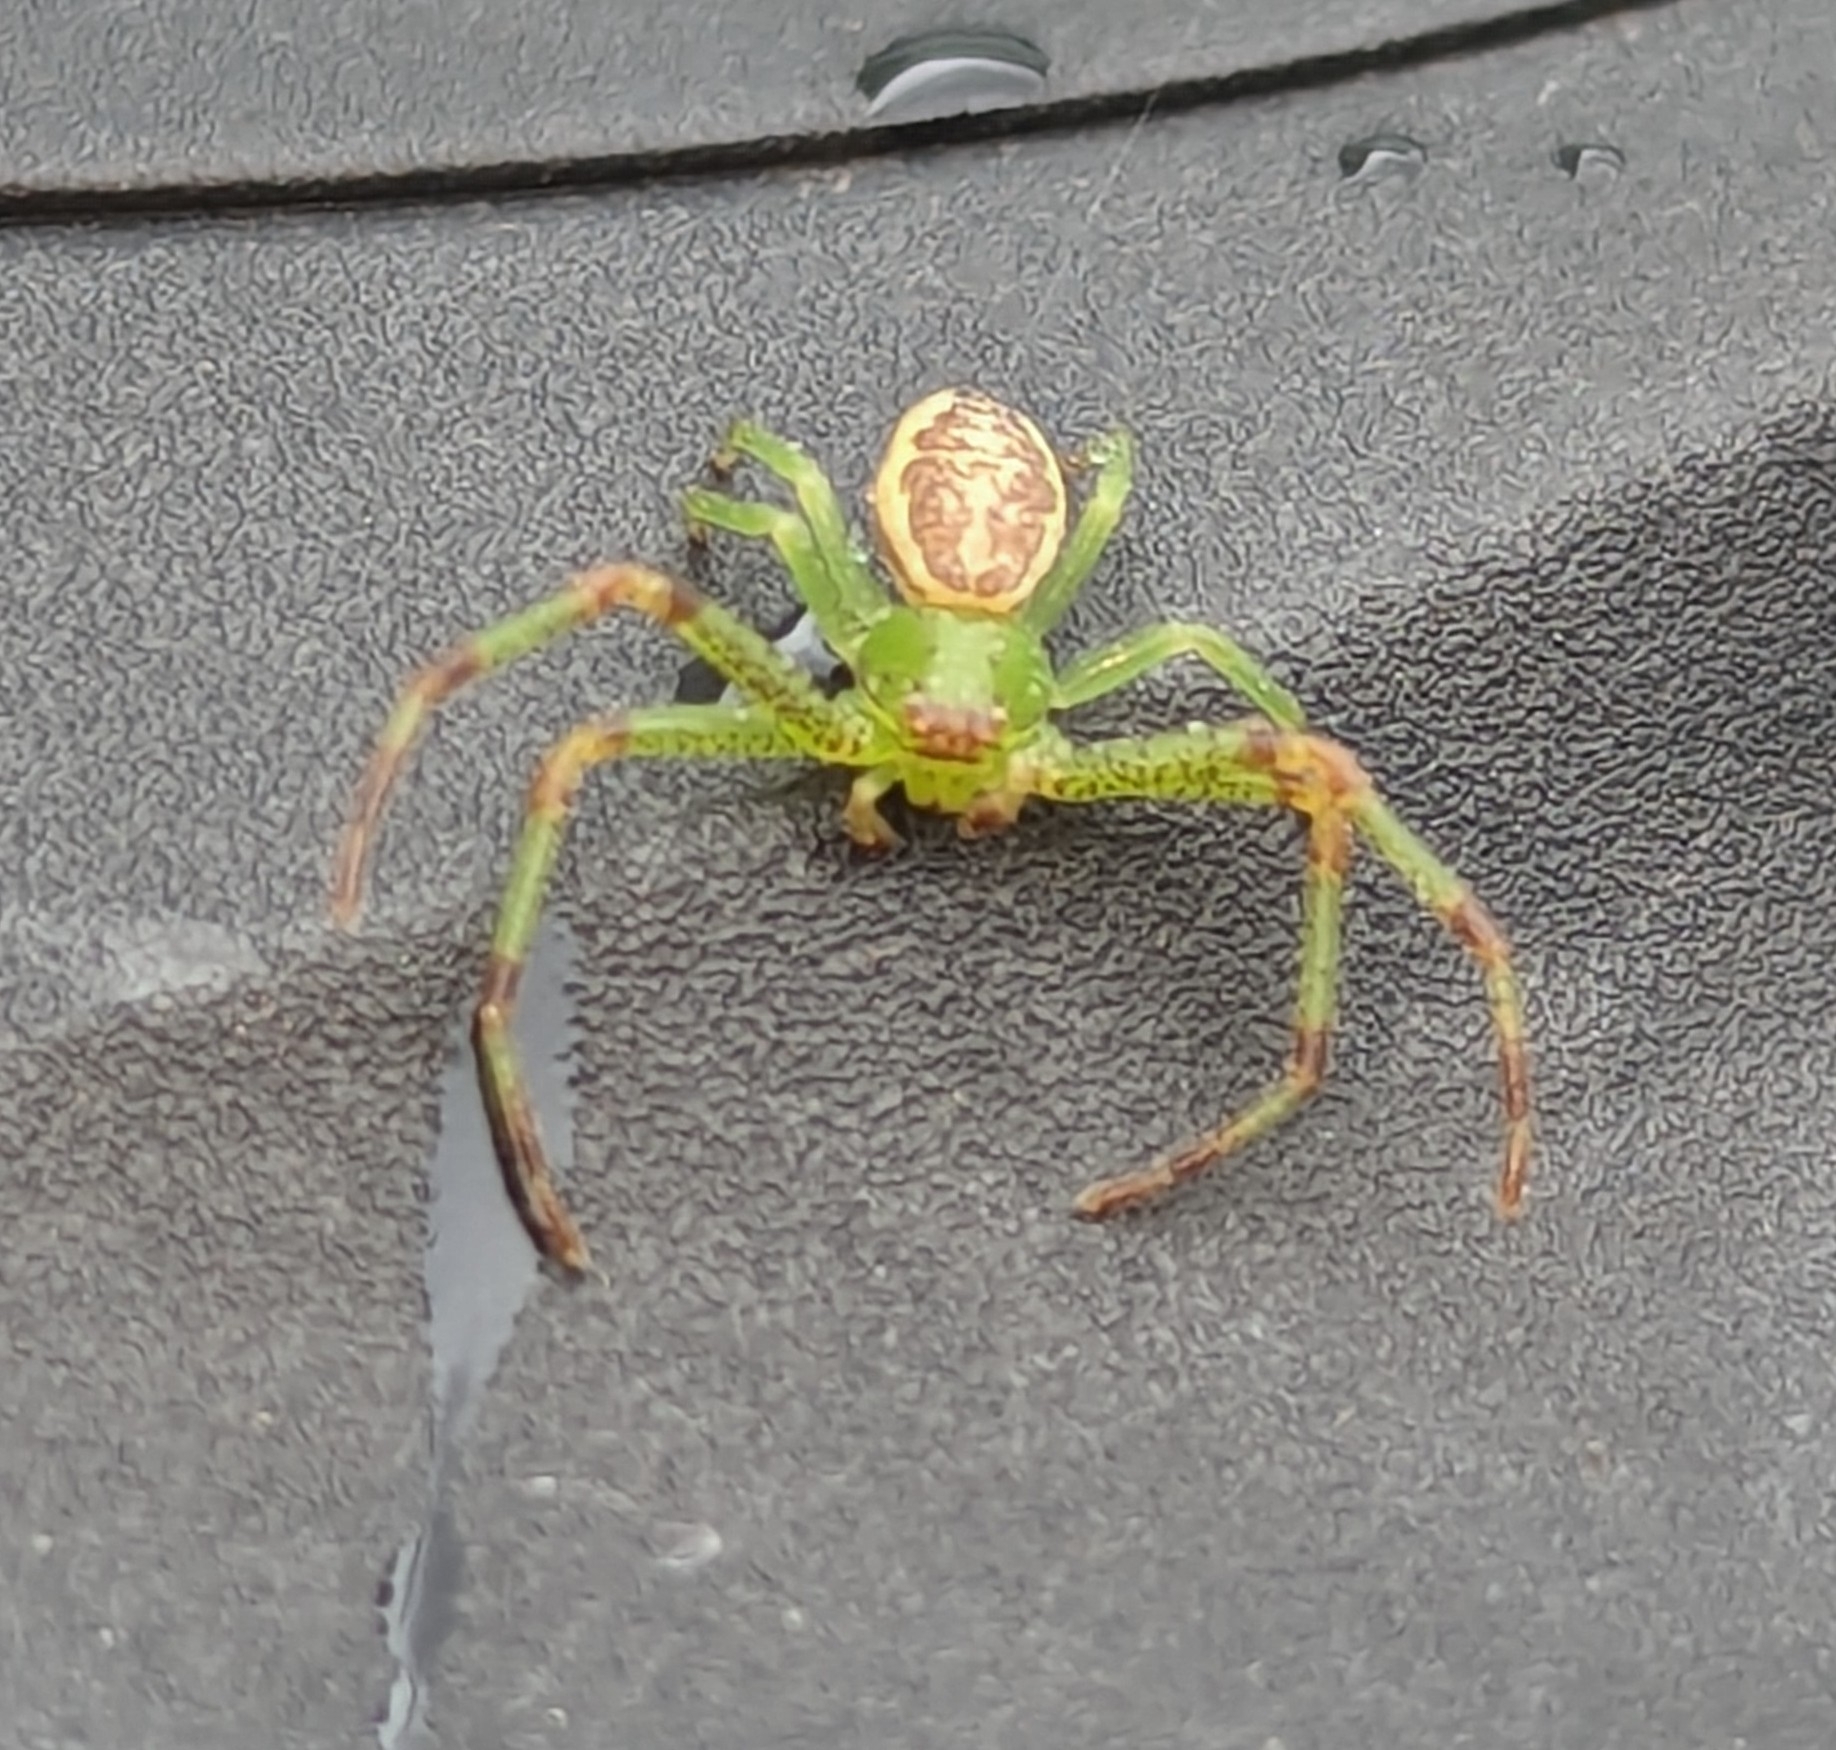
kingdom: Animalia
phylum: Arthropoda
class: Arachnida
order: Araneae
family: Thomisidae
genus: Diaea
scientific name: Diaea dorsata
